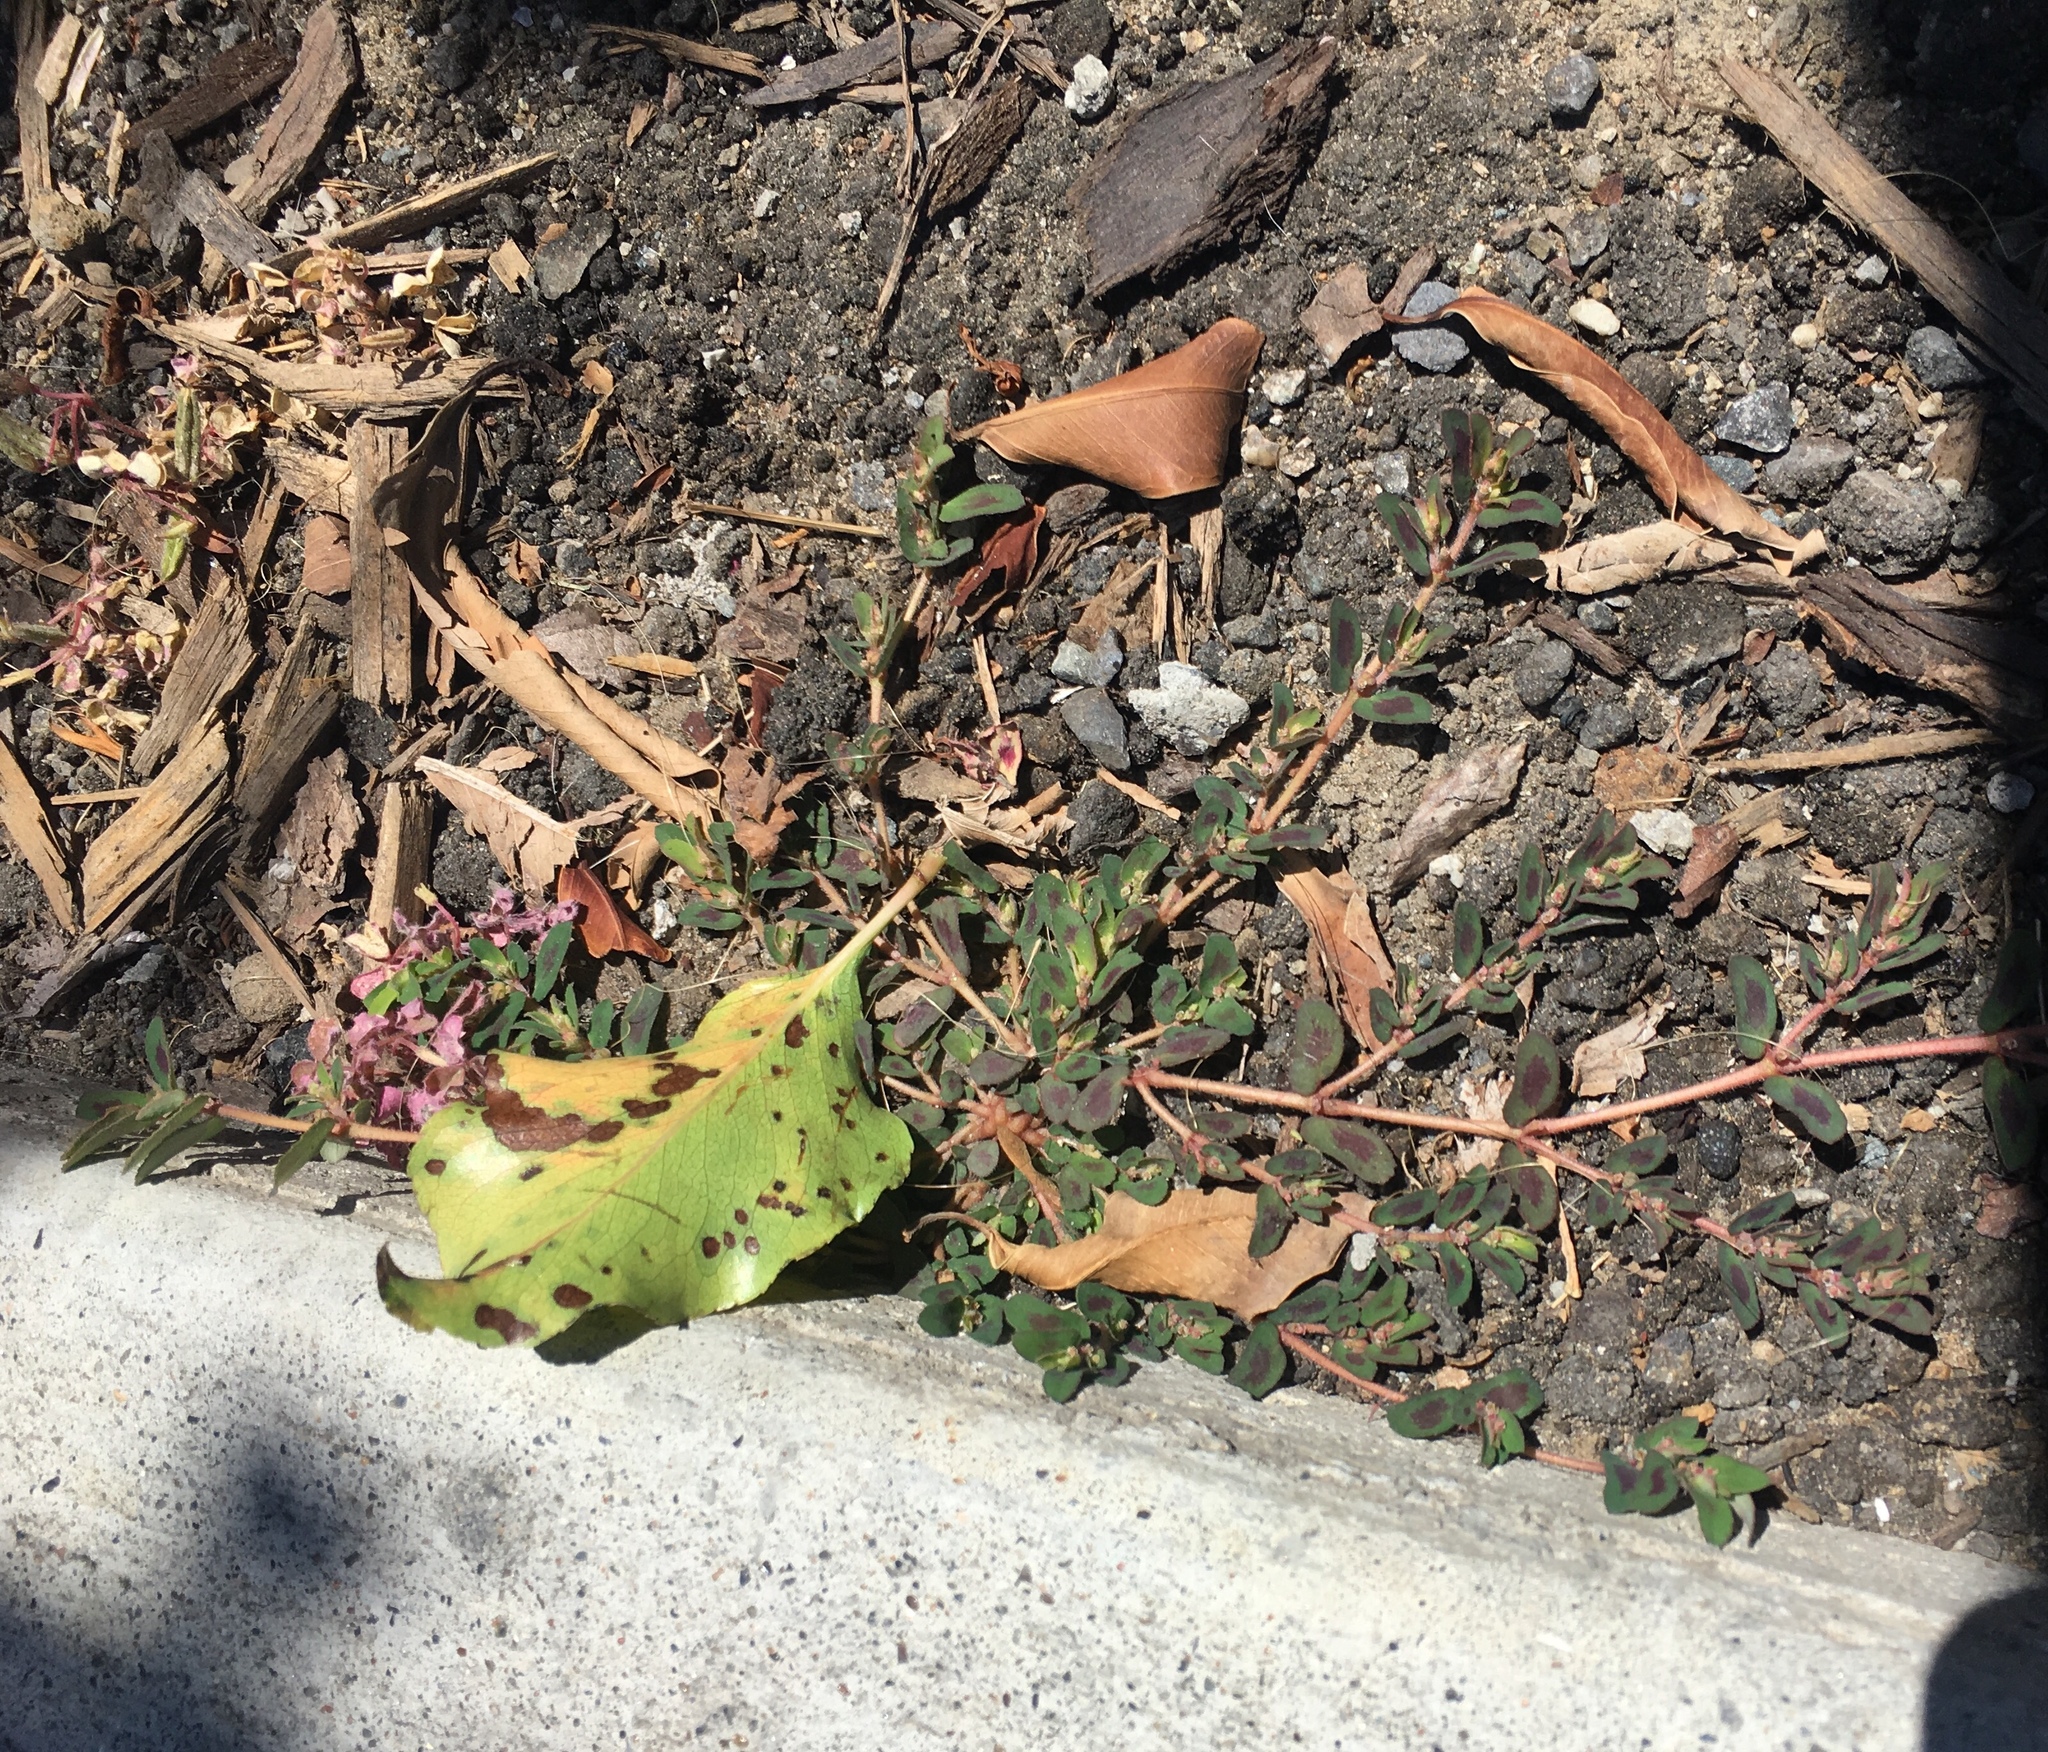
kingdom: Plantae
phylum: Tracheophyta
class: Magnoliopsida
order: Malpighiales
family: Euphorbiaceae
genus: Euphorbia
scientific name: Euphorbia maculata
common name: Spotted spurge
